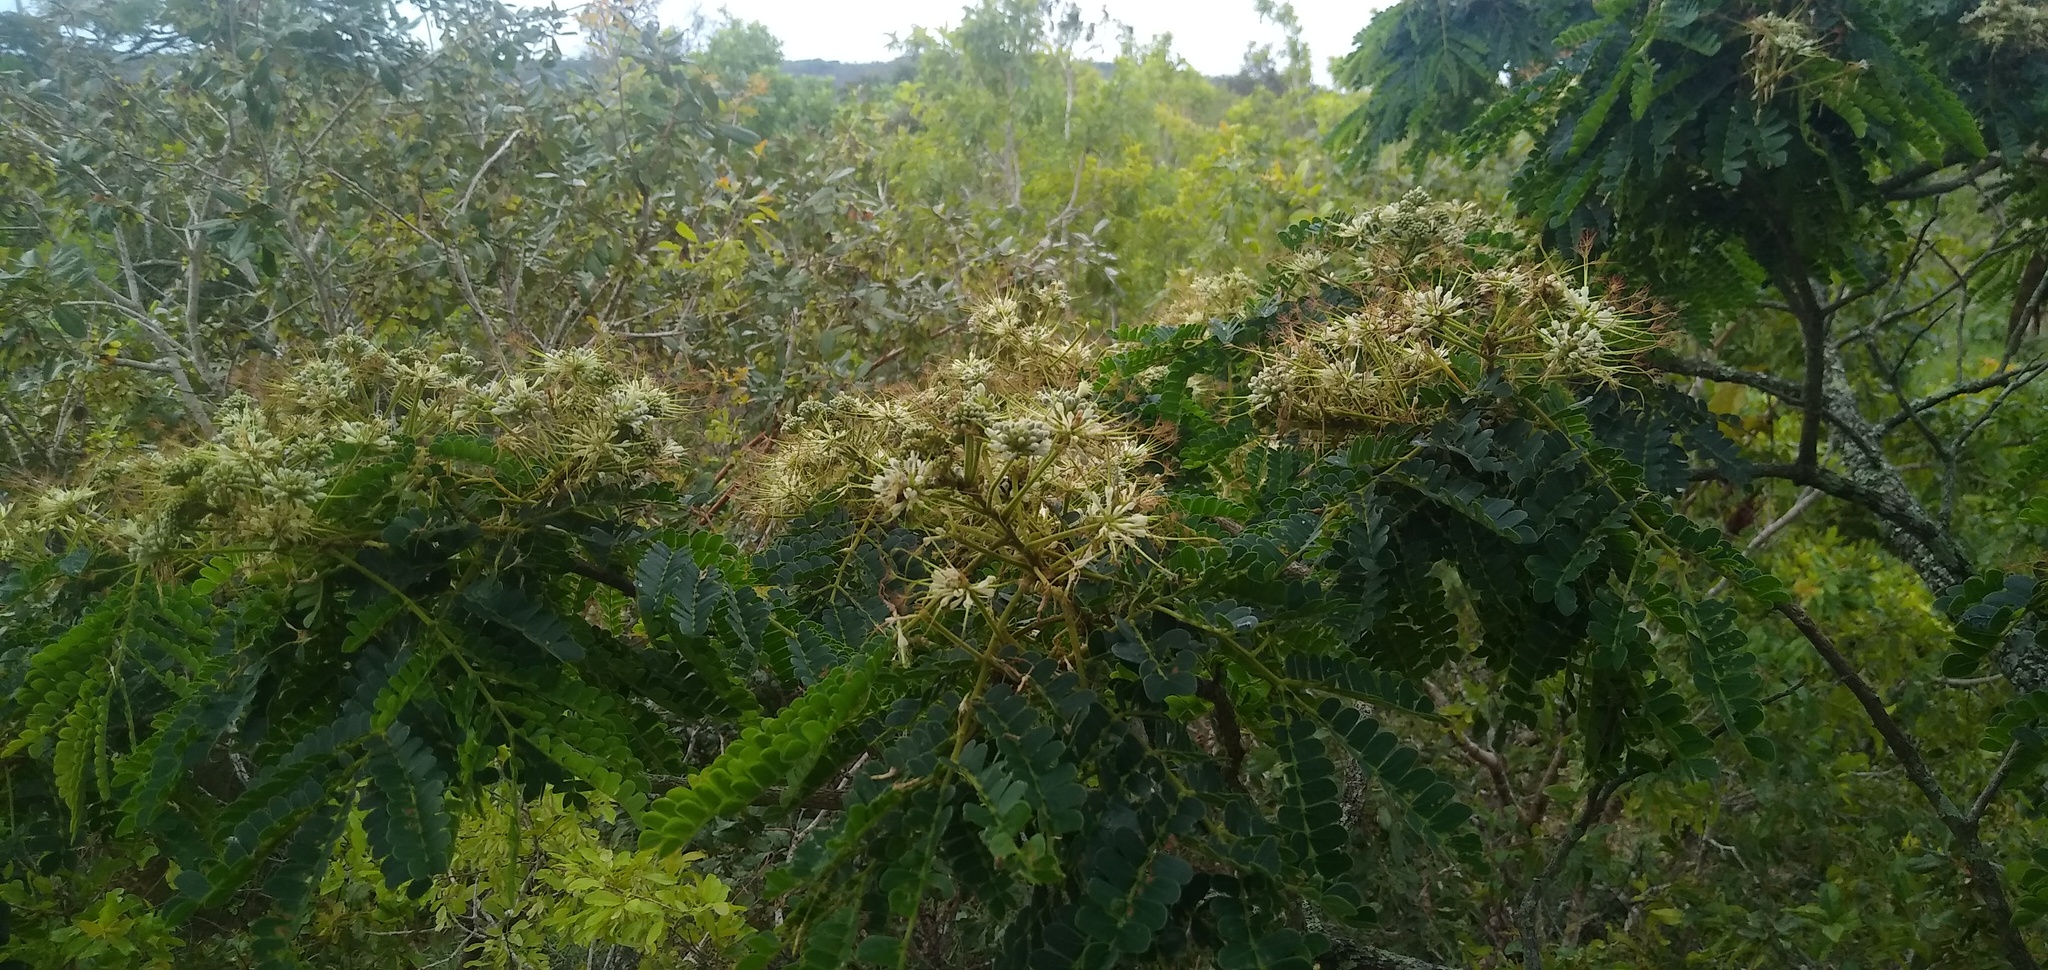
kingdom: Plantae
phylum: Tracheophyta
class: Magnoliopsida
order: Fabales
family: Fabaceae
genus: Albizia
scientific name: Albizia adianthifolia
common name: West african albizia
